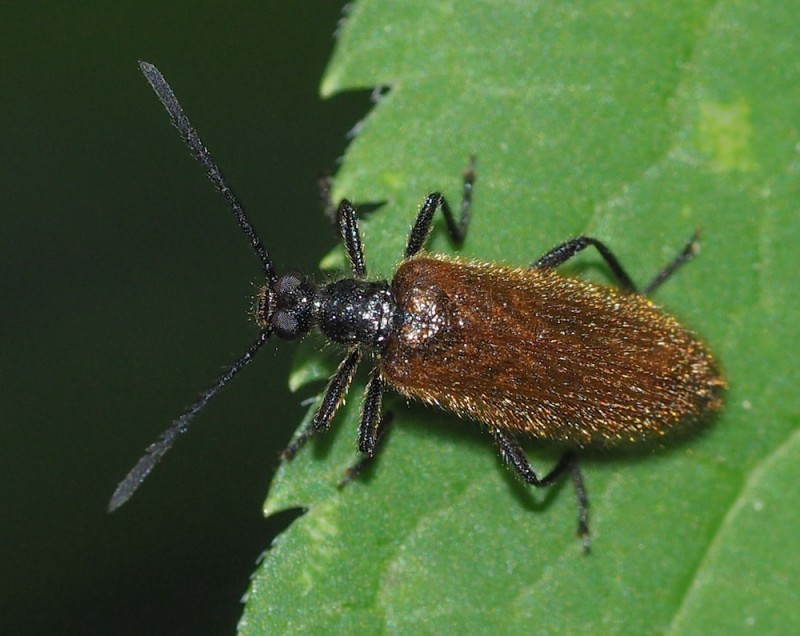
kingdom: Animalia
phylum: Arthropoda
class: Insecta
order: Coleoptera
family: Tenebrionidae
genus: Lagria
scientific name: Lagria hirta
